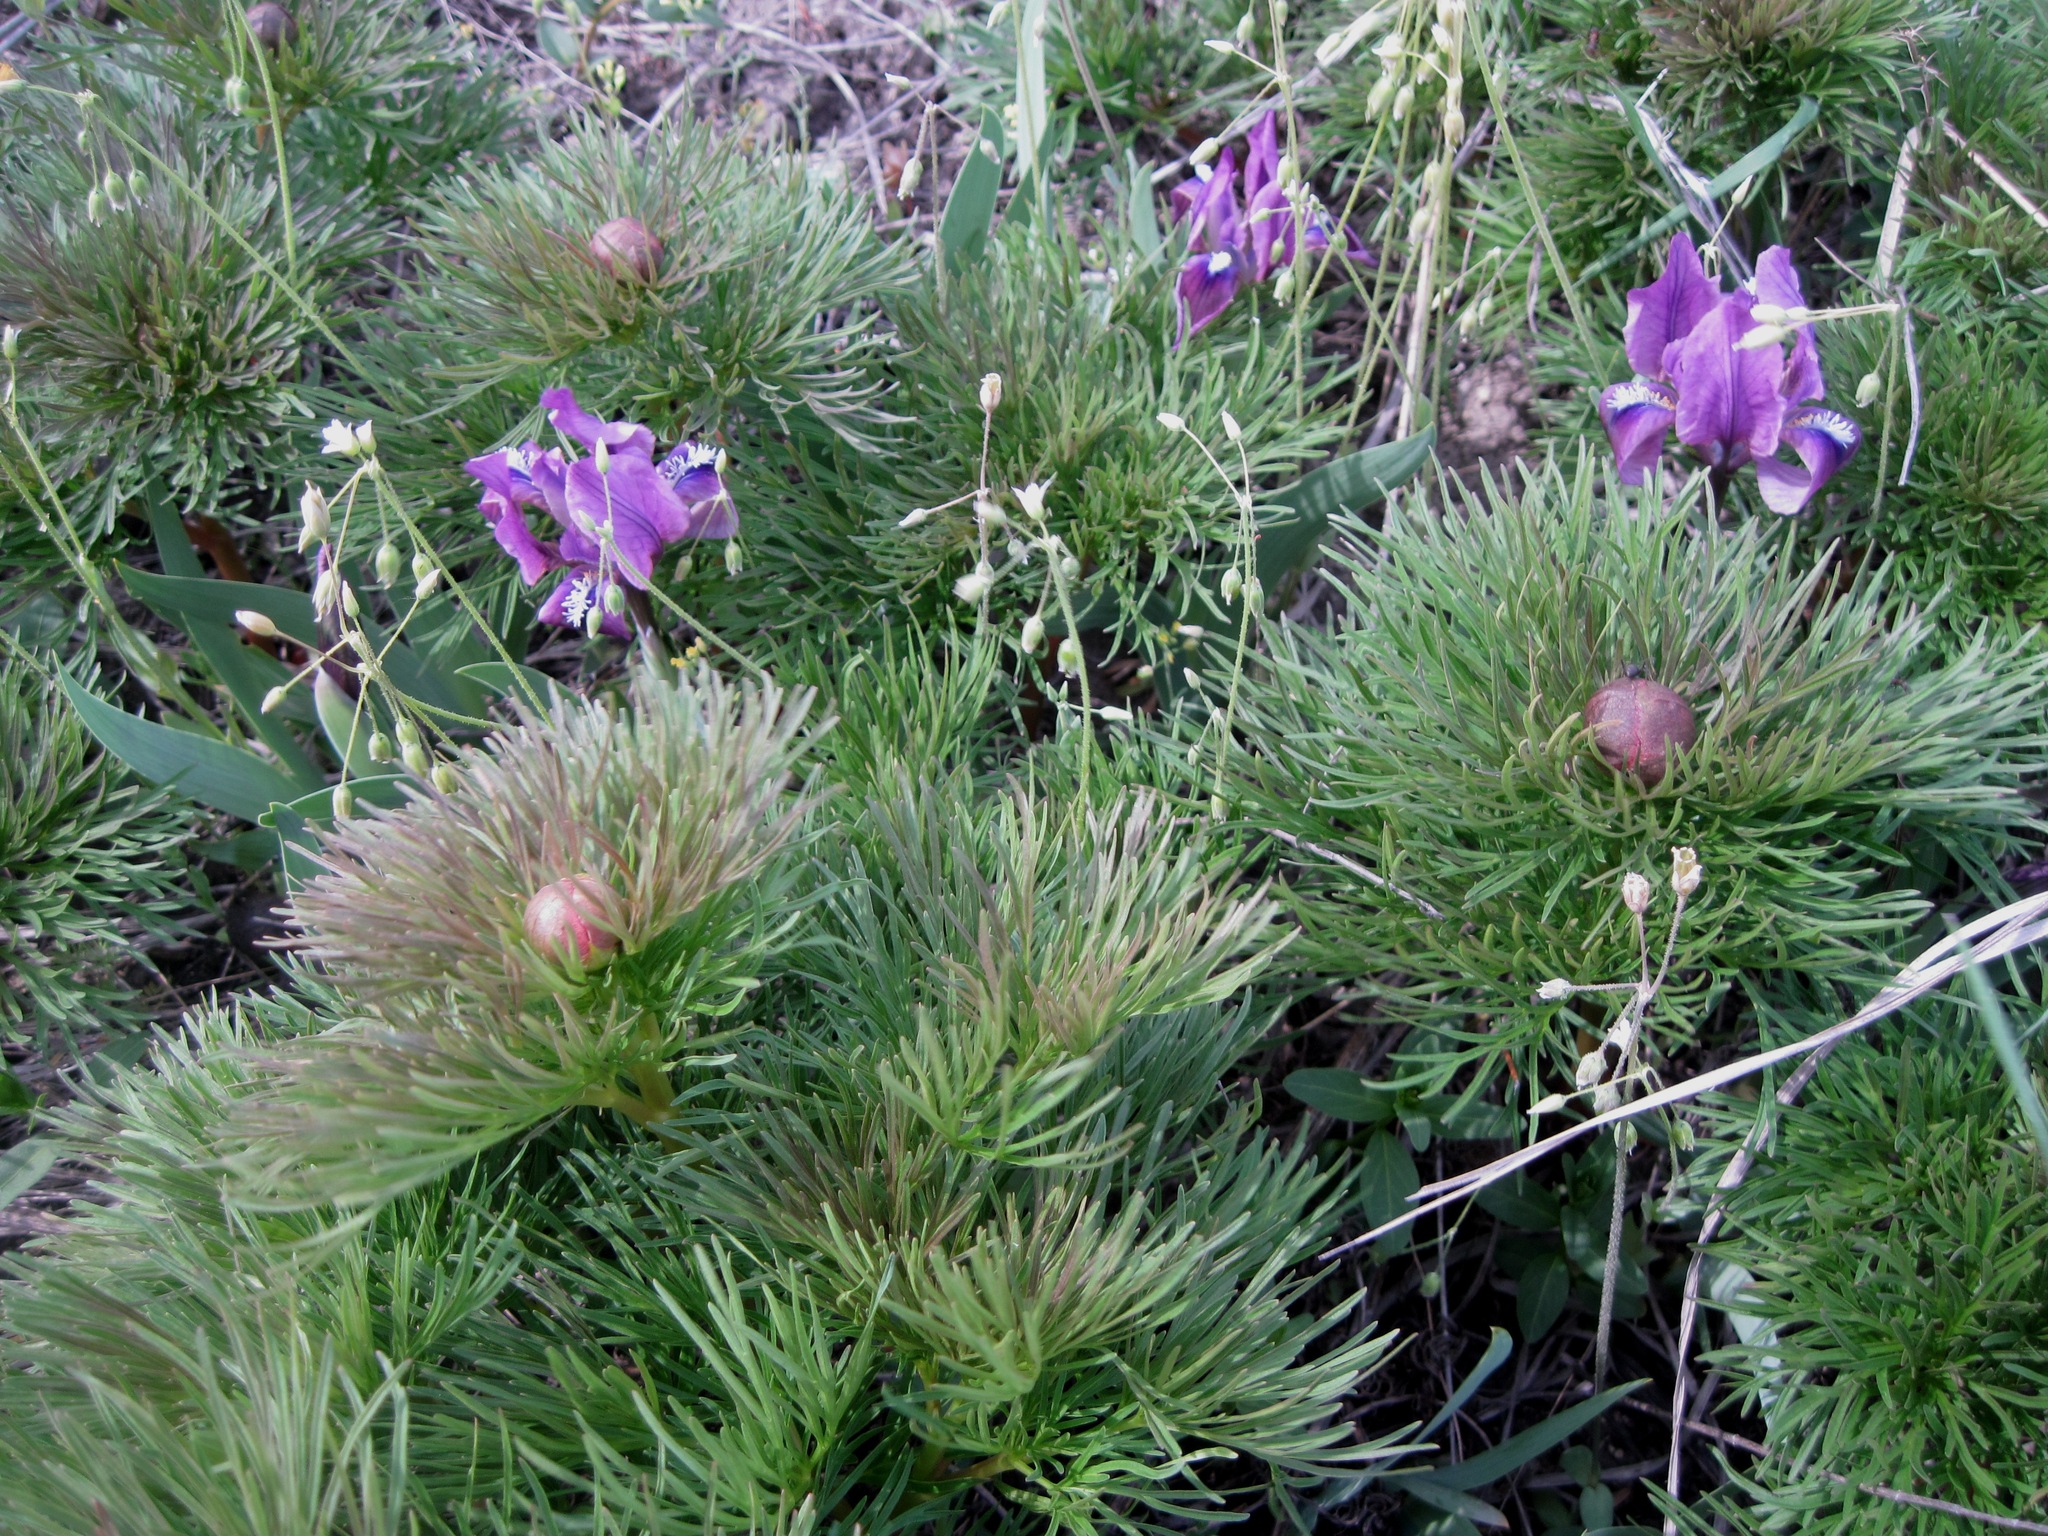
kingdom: Plantae
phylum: Tracheophyta
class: Magnoliopsida
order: Saxifragales
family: Paeoniaceae
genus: Paeonia
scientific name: Paeonia tenuifolia
